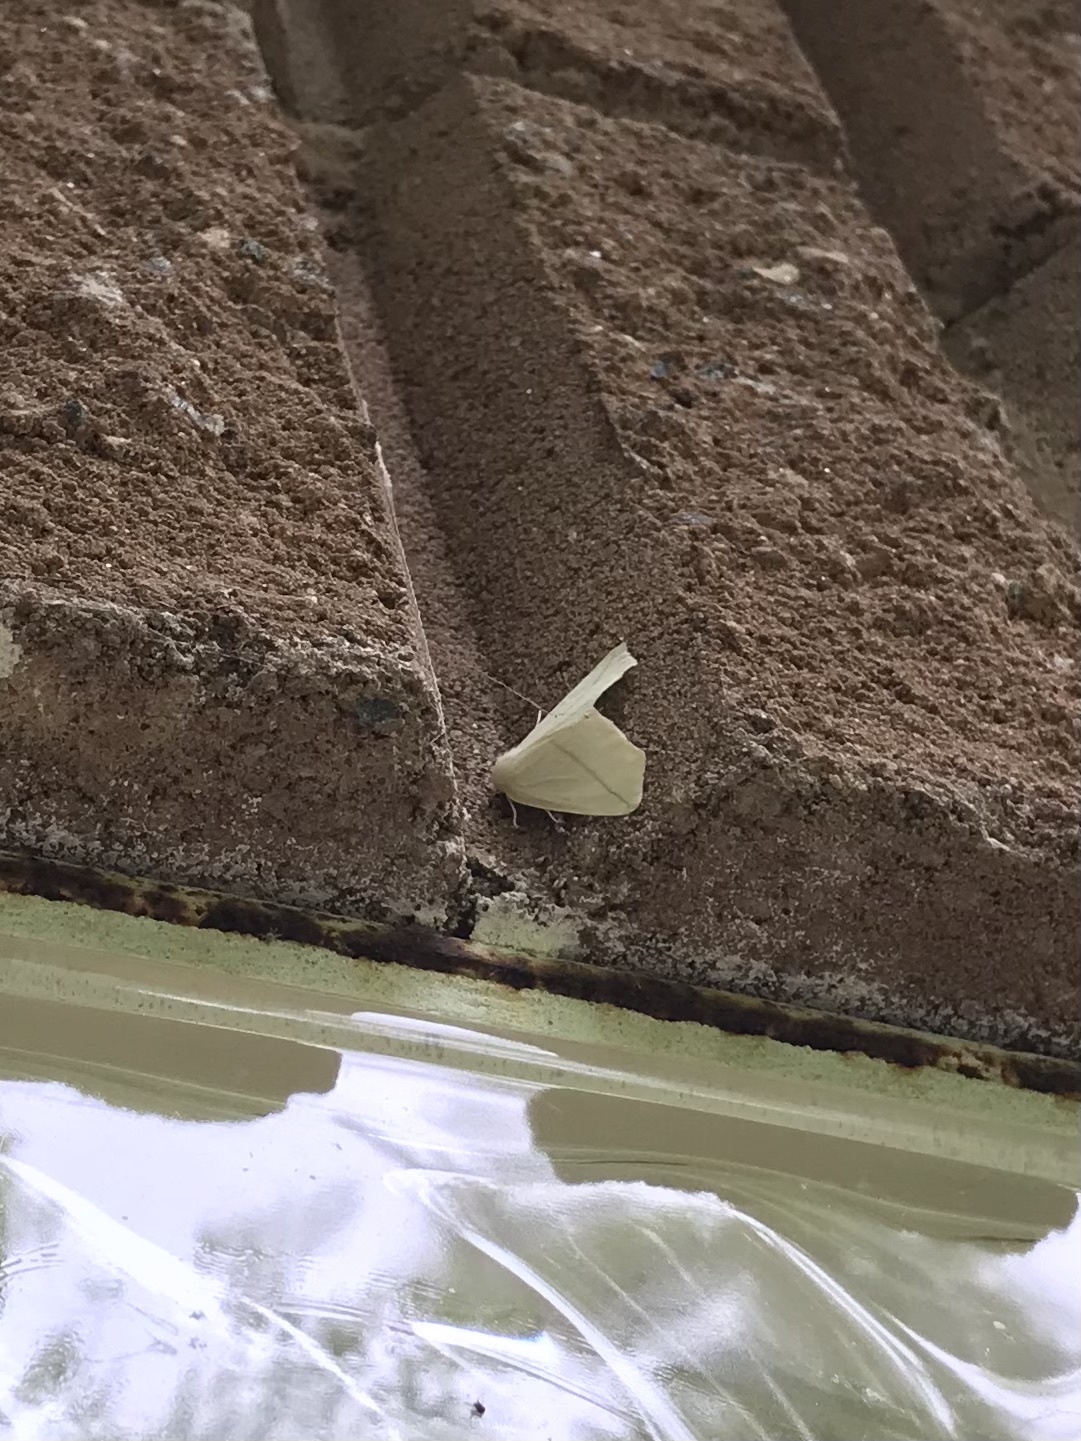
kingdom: Animalia
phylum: Arthropoda
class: Insecta
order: Lepidoptera
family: Geometridae
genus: Tetracis
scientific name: Tetracis cachexiata
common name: White slant-line
